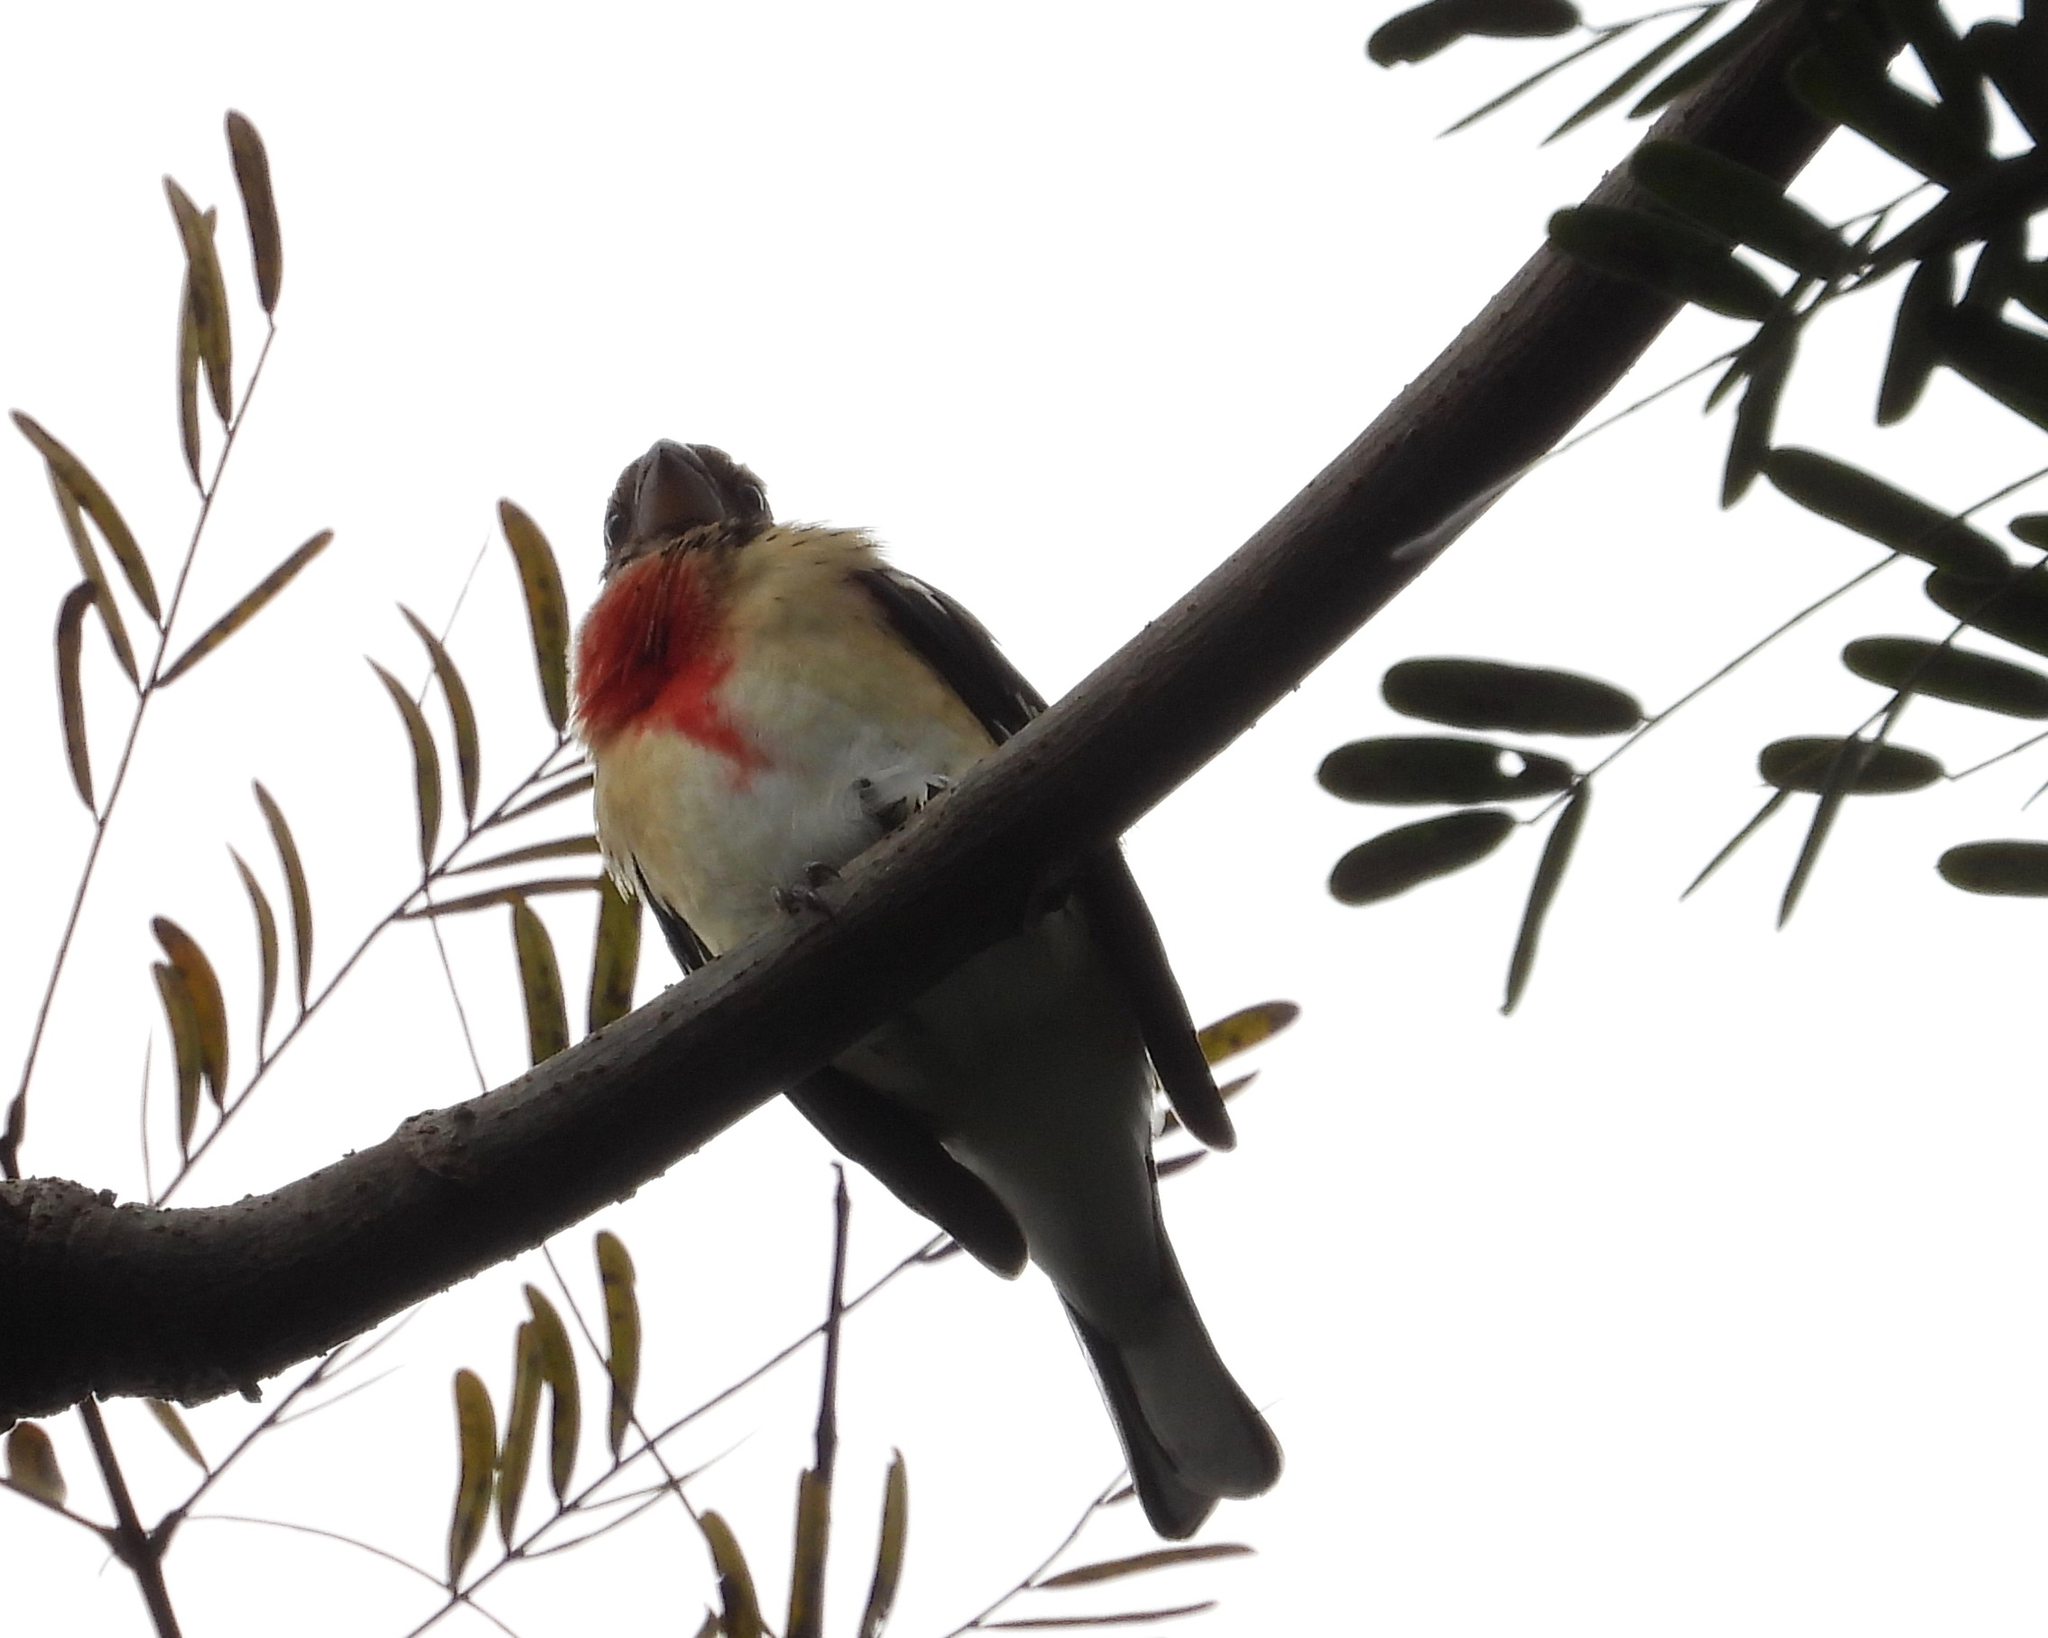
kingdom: Animalia
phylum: Chordata
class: Aves
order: Passeriformes
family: Cardinalidae
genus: Pheucticus
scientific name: Pheucticus ludovicianus
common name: Rose-breasted grosbeak
